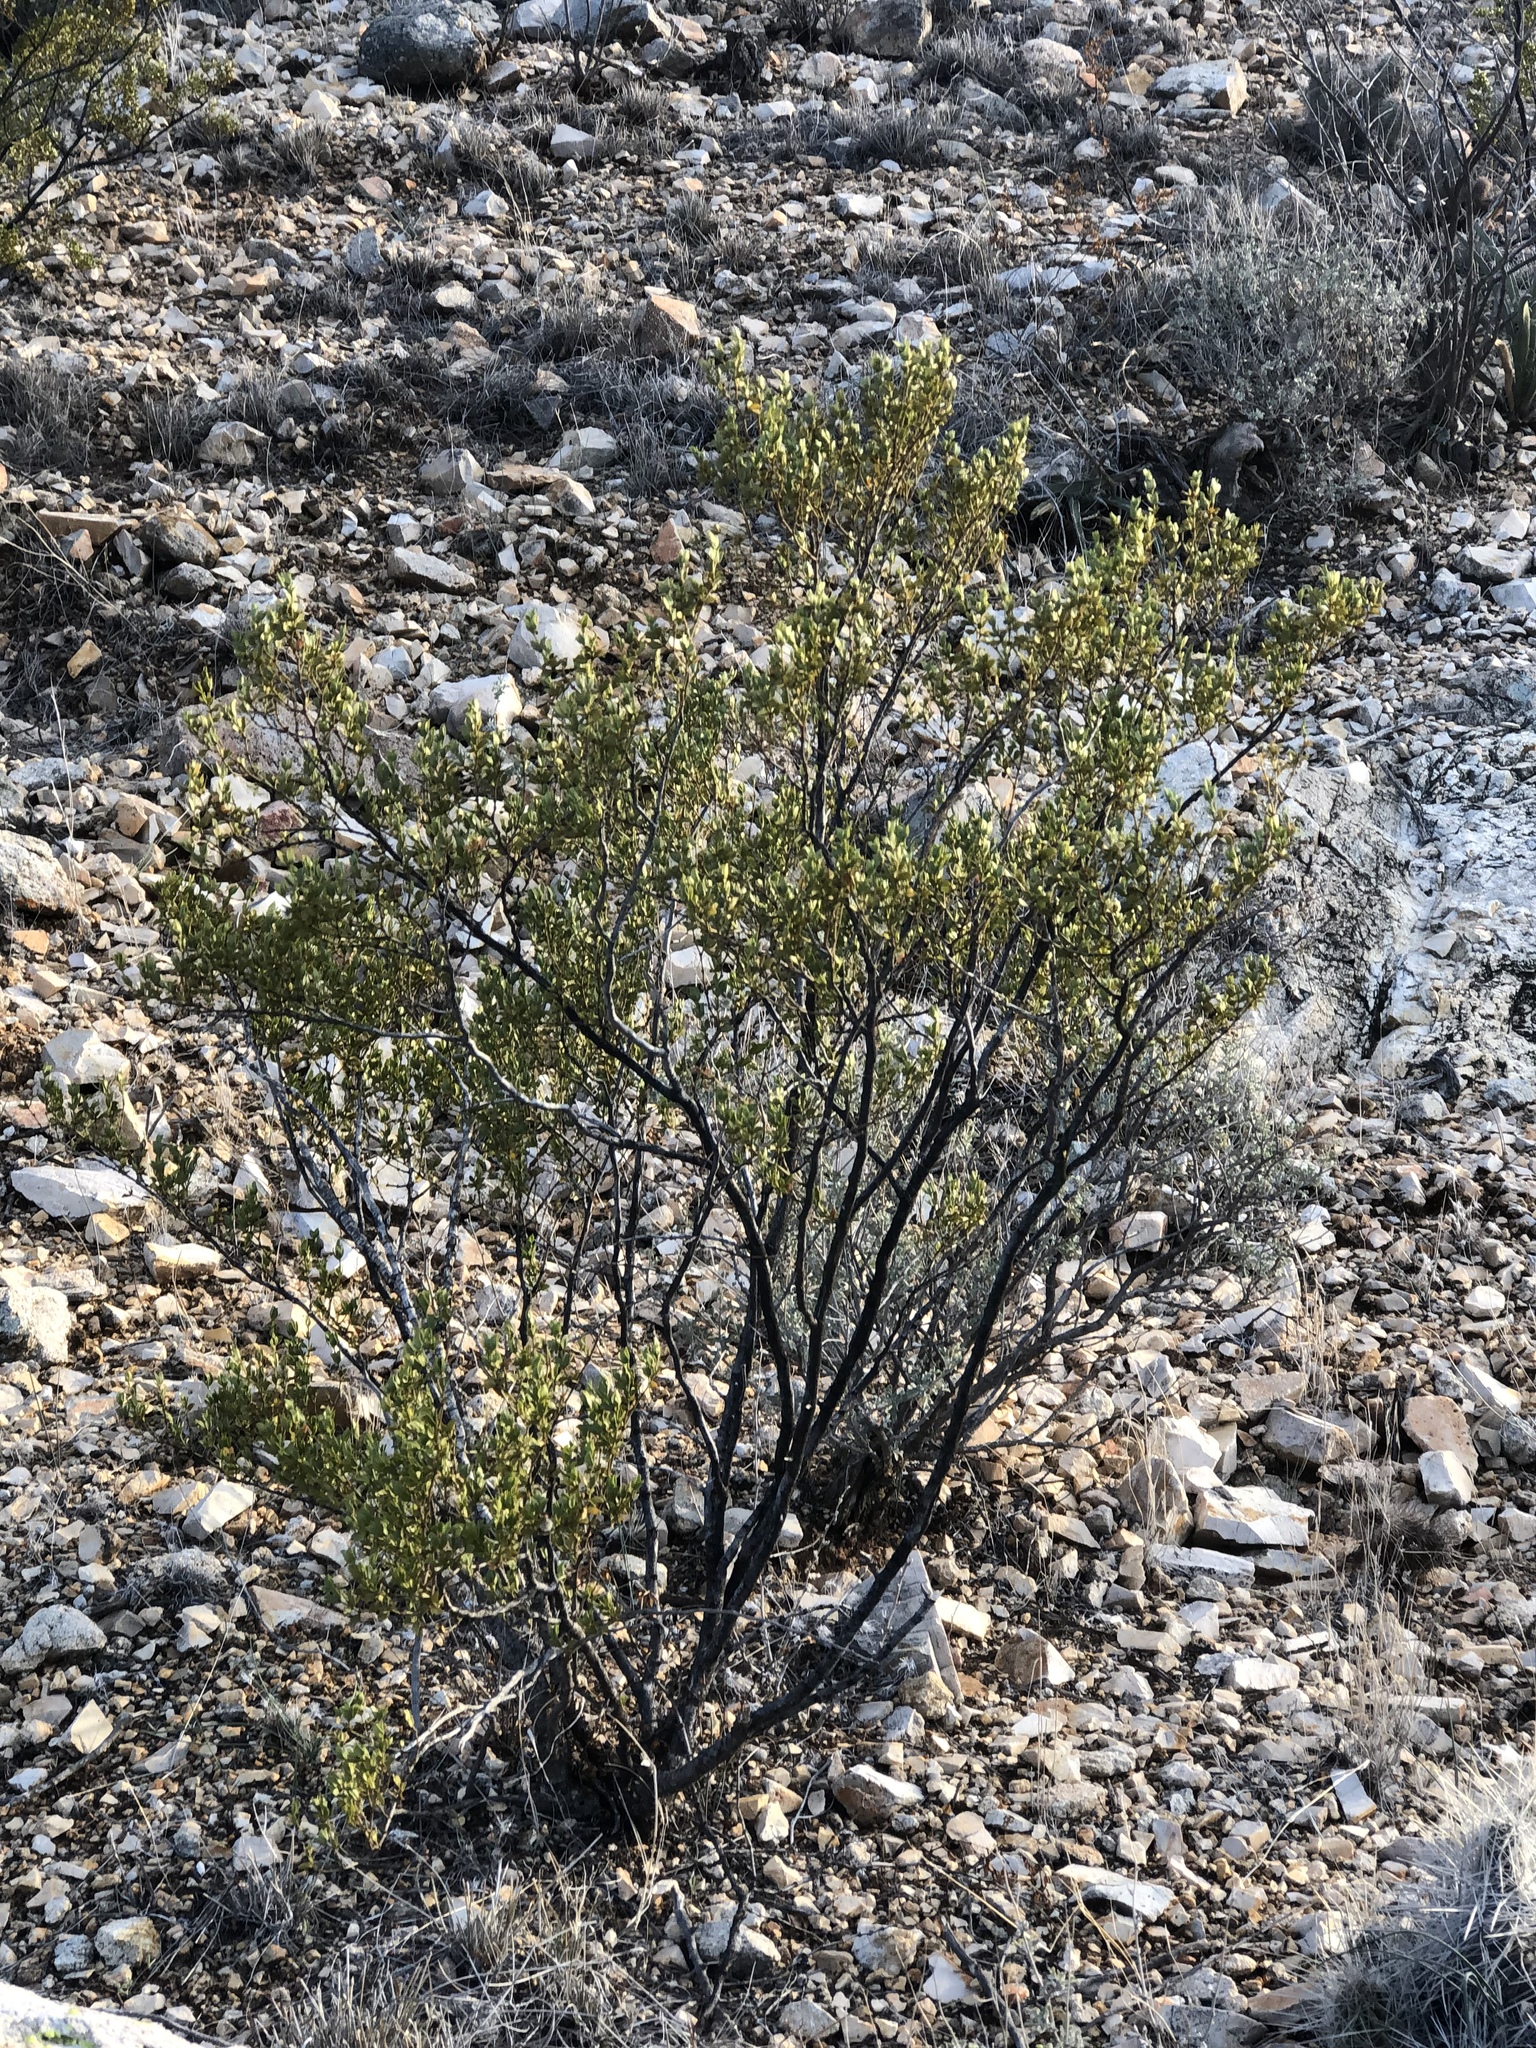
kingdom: Plantae
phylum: Tracheophyta
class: Magnoliopsida
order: Zygophyllales
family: Zygophyllaceae
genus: Larrea
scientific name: Larrea tridentata
